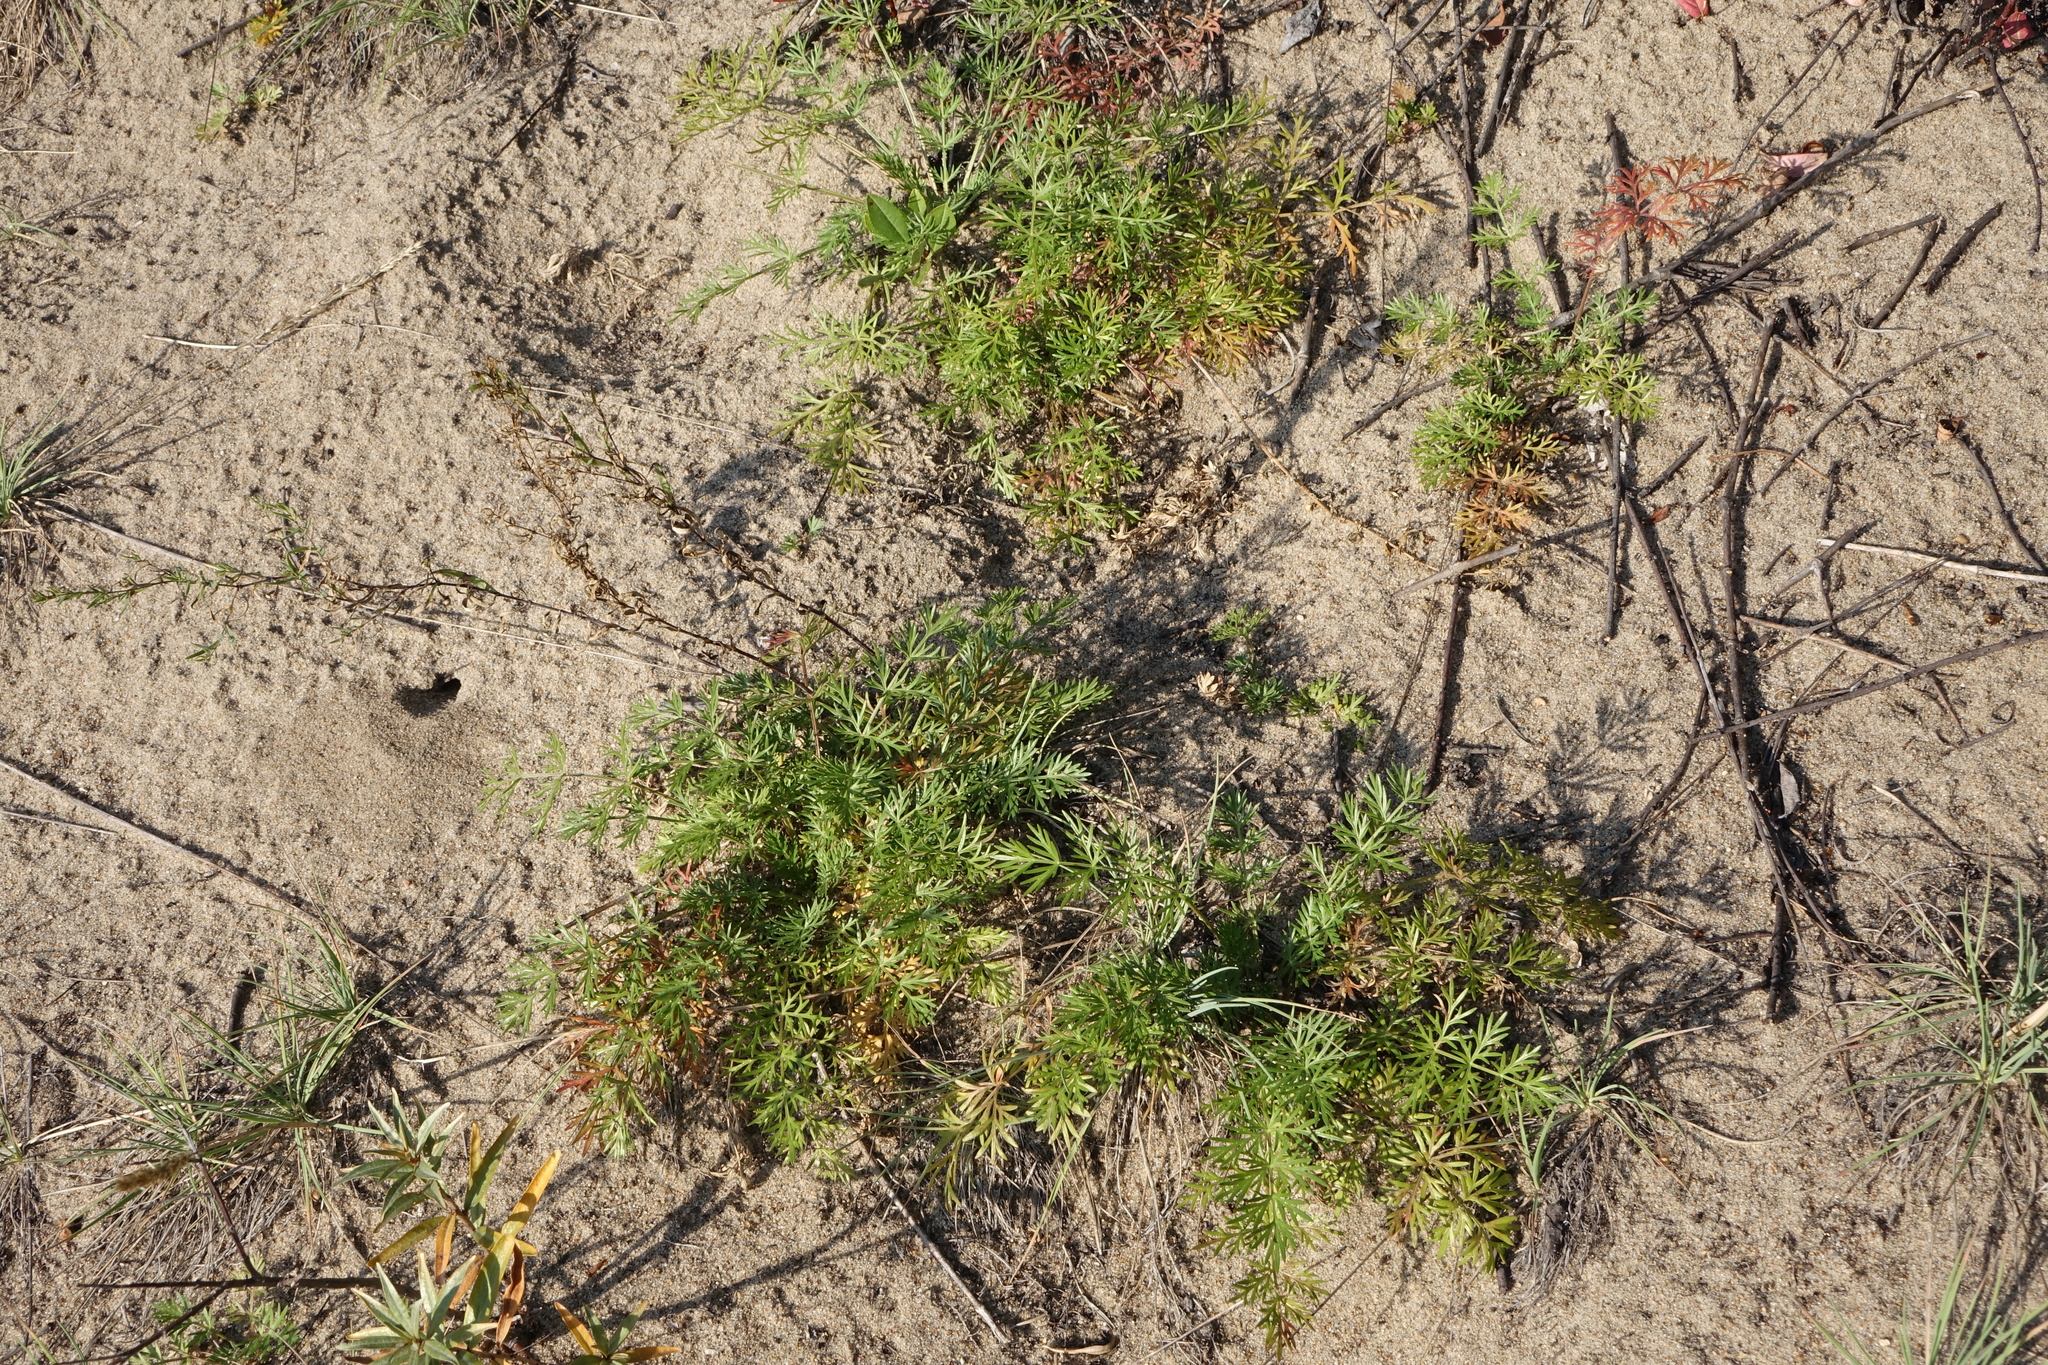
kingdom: Plantae
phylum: Tracheophyta
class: Magnoliopsida
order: Apiales
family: Apiaceae
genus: Kitagawia
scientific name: Kitagawia baicalensis
